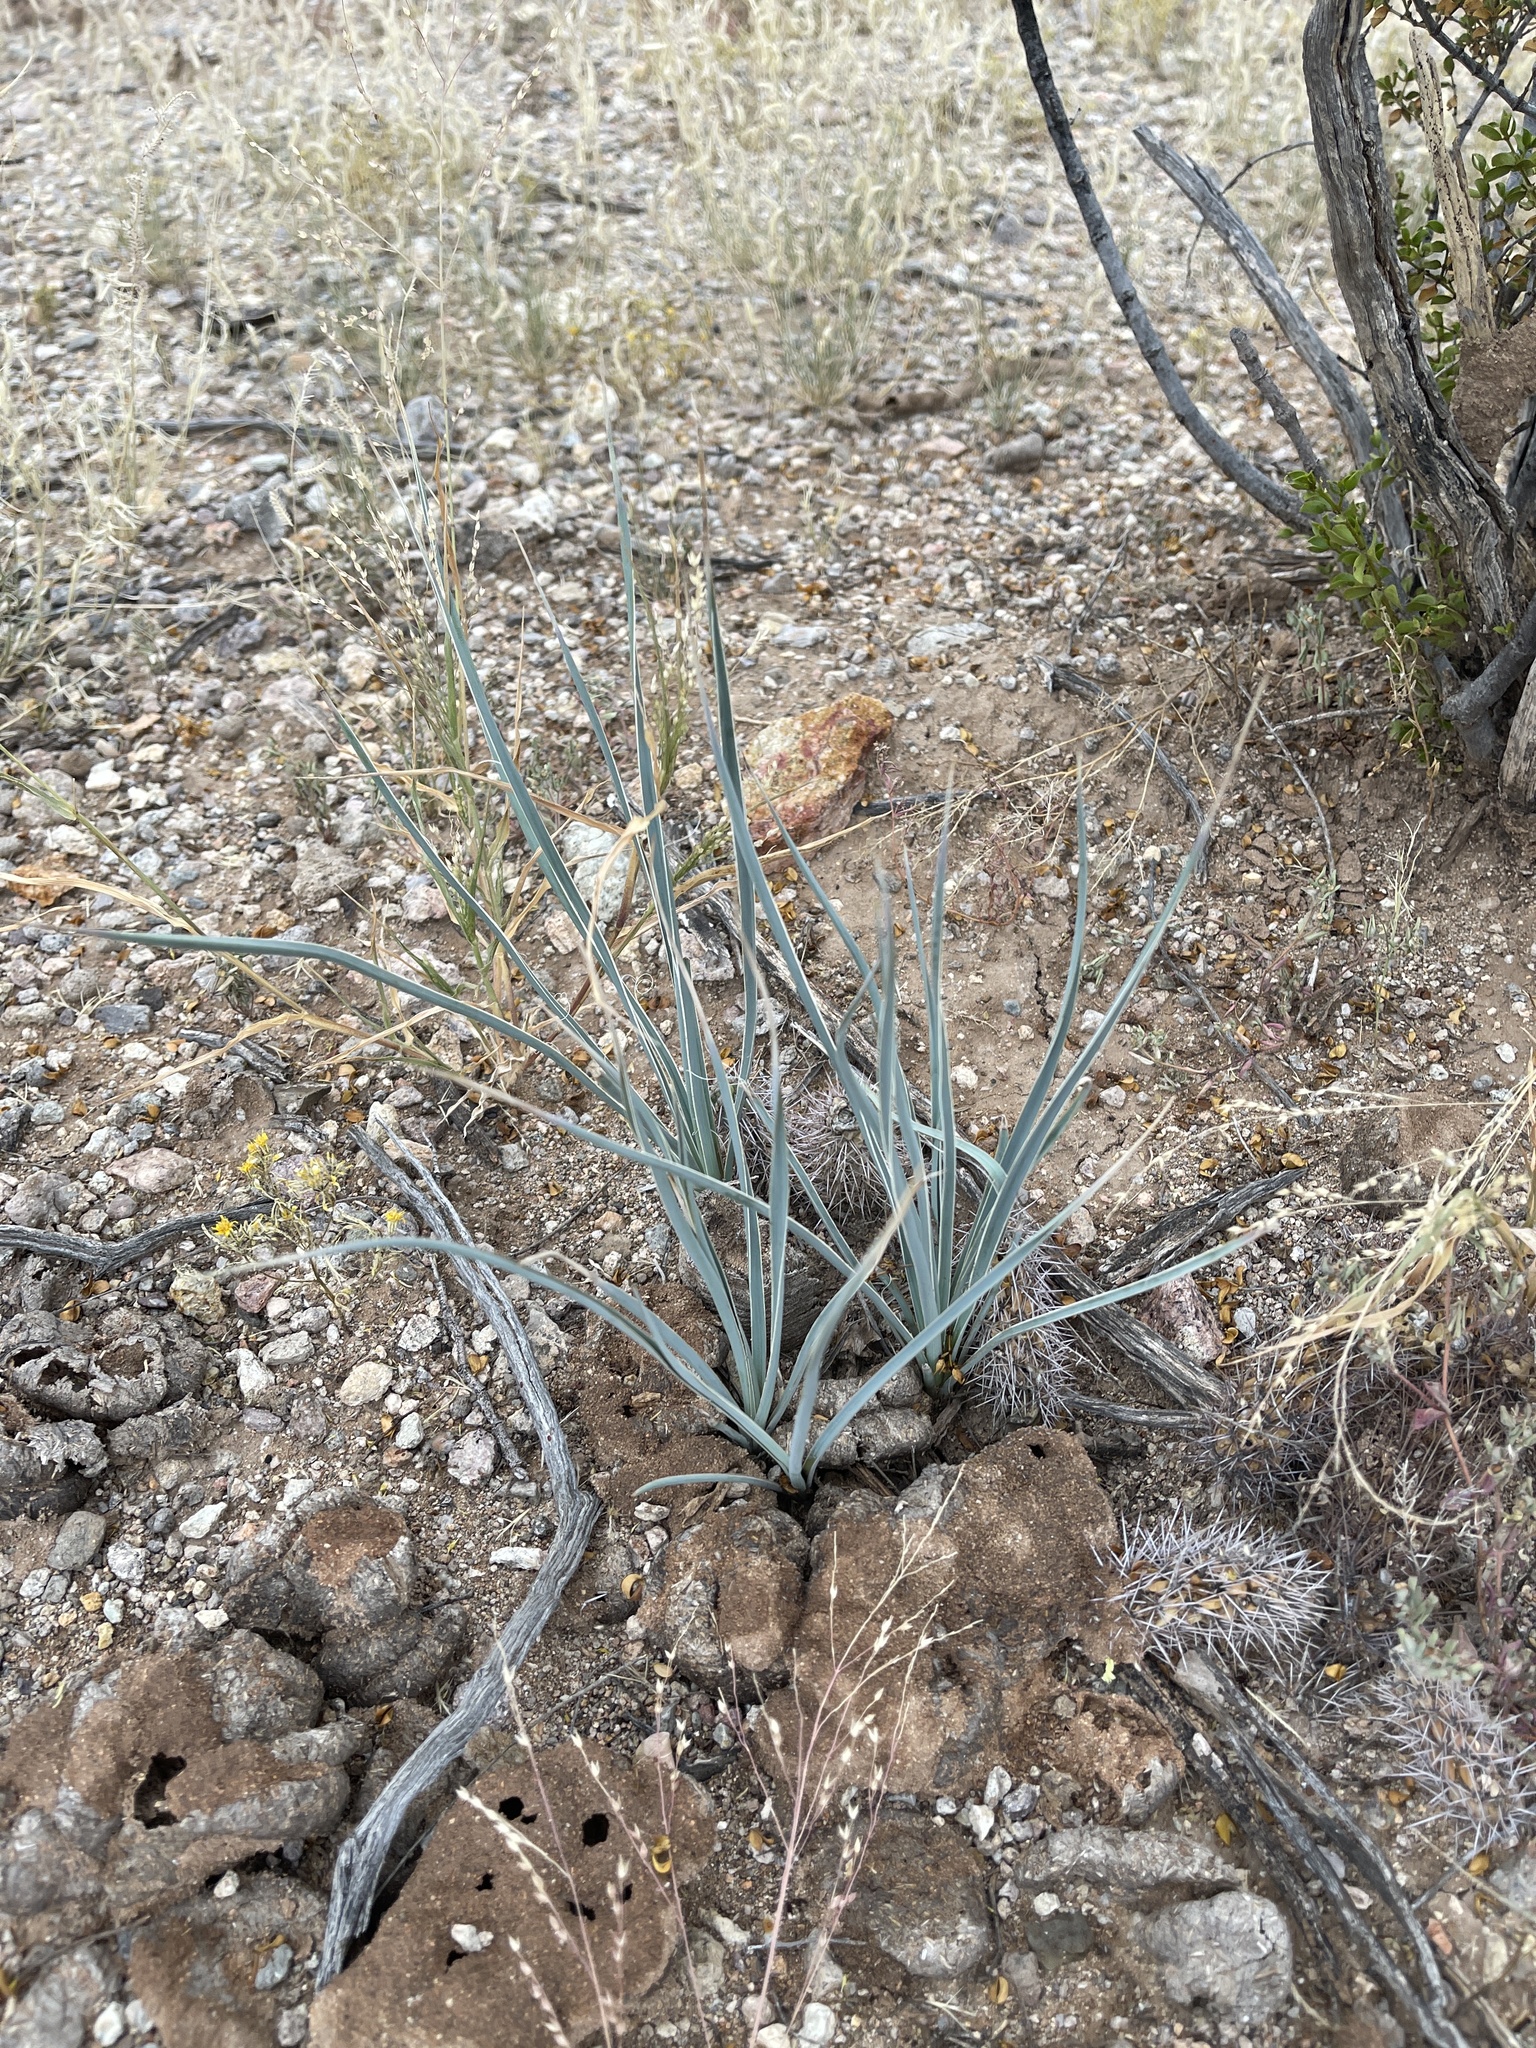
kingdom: Plantae
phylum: Tracheophyta
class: Liliopsida
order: Asparagales
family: Asparagaceae
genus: Yucca
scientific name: Yucca elata
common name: Palmella
